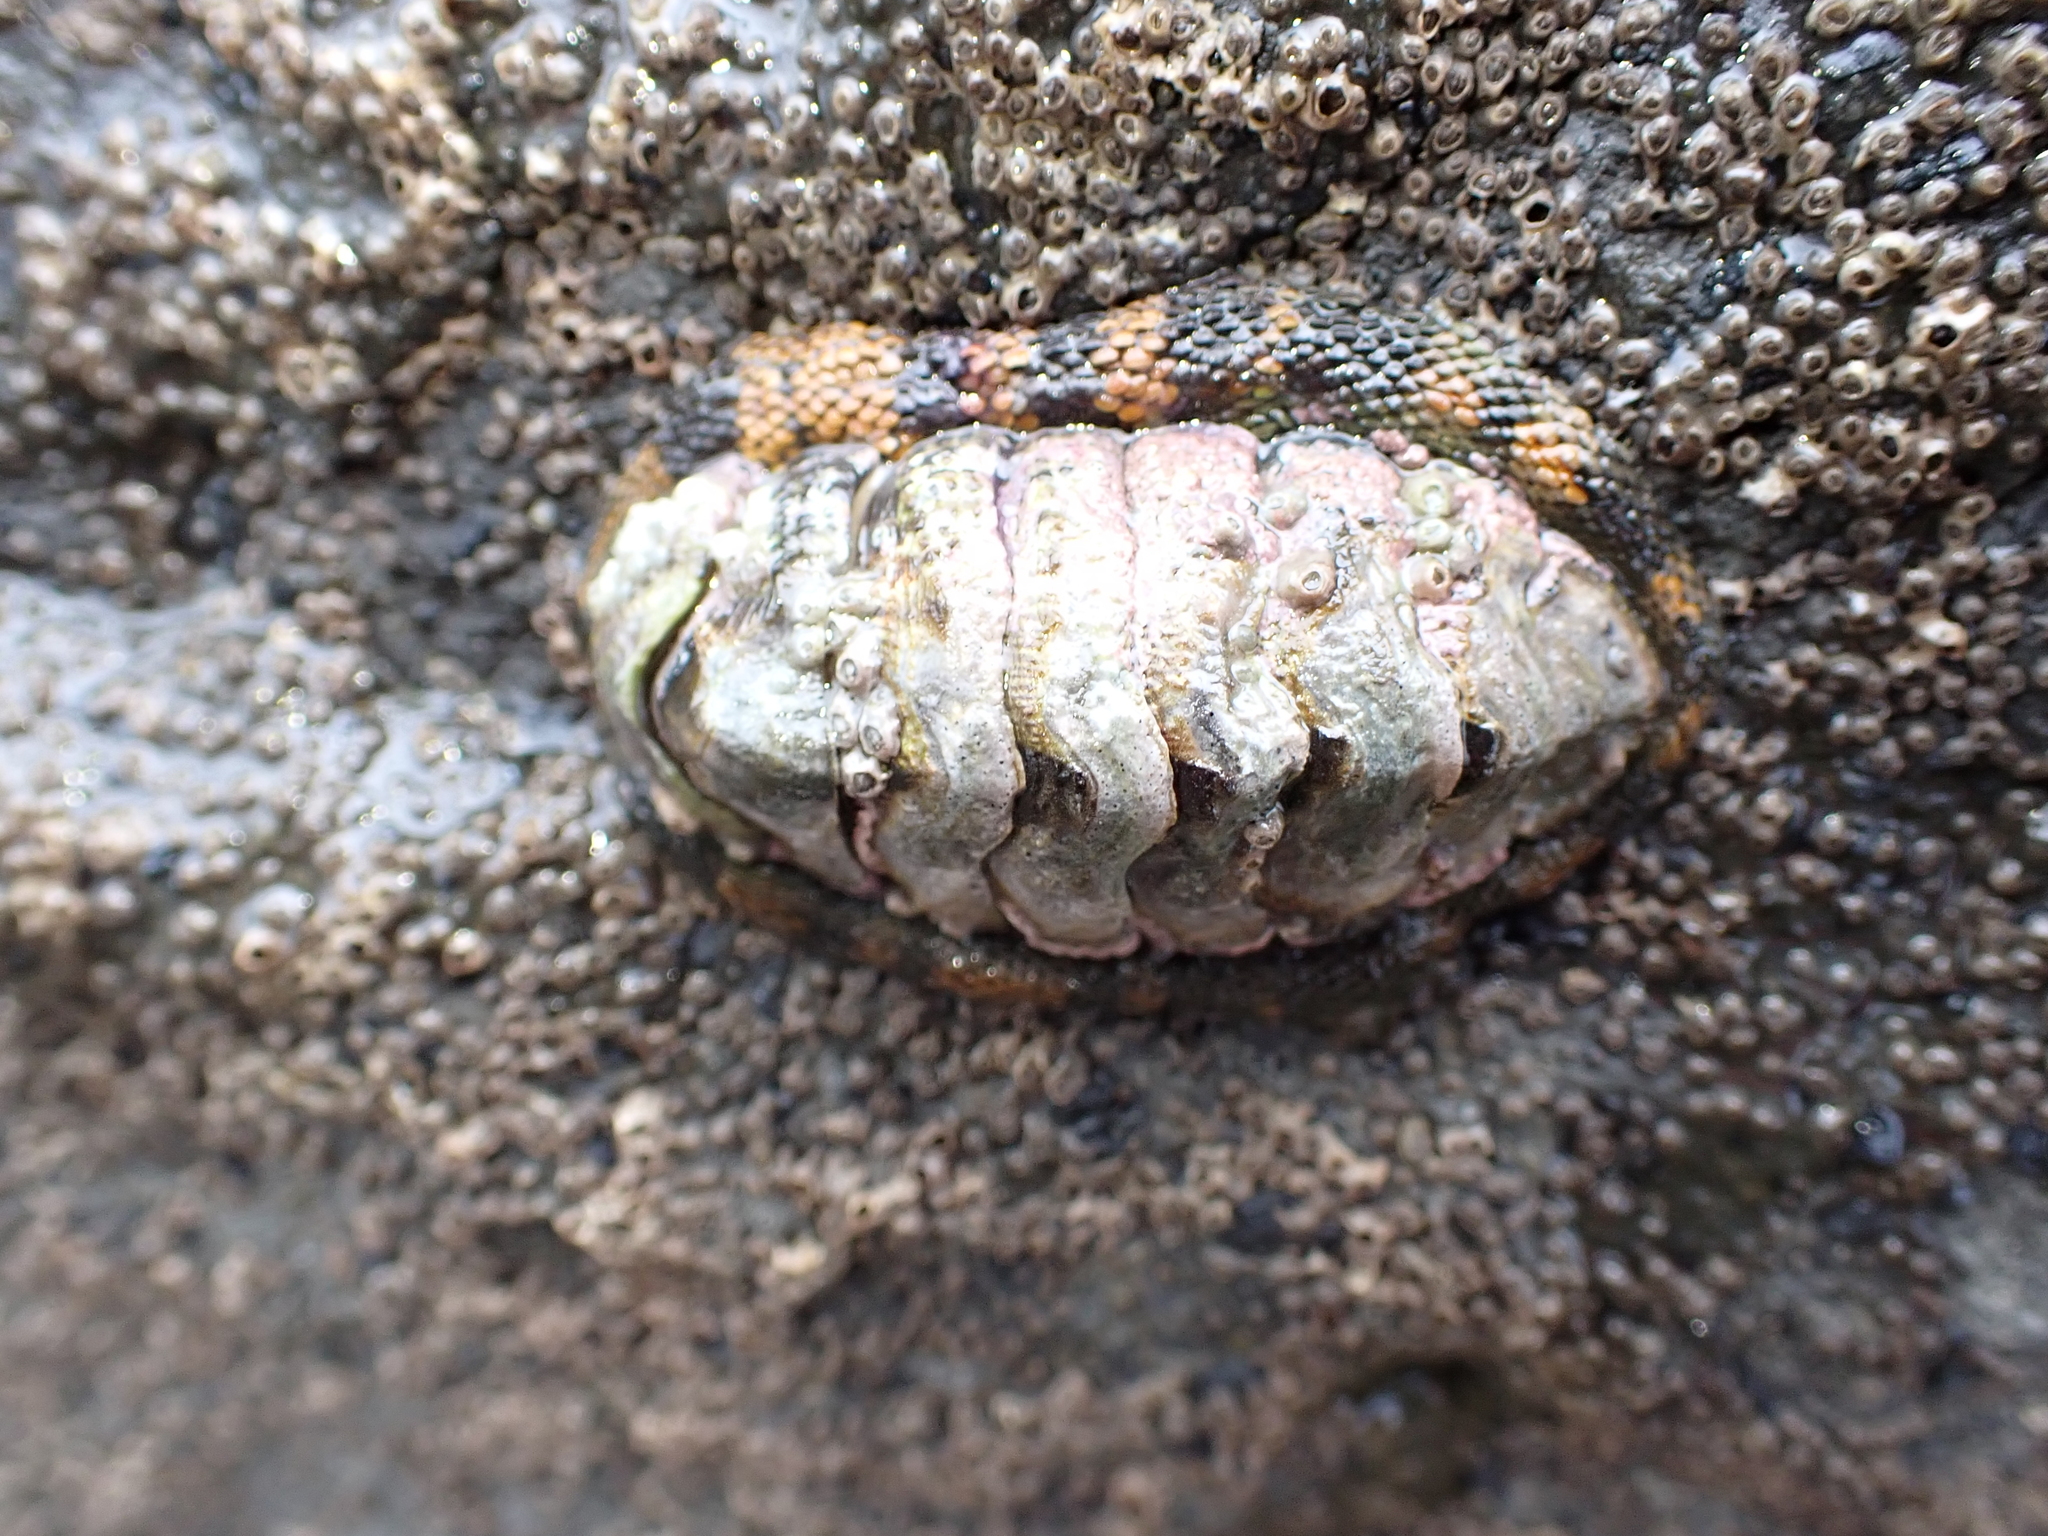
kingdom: Animalia
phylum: Mollusca
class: Polyplacophora
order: Chitonida
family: Chitonidae
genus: Sypharochiton
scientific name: Sypharochiton pelliserpentis
